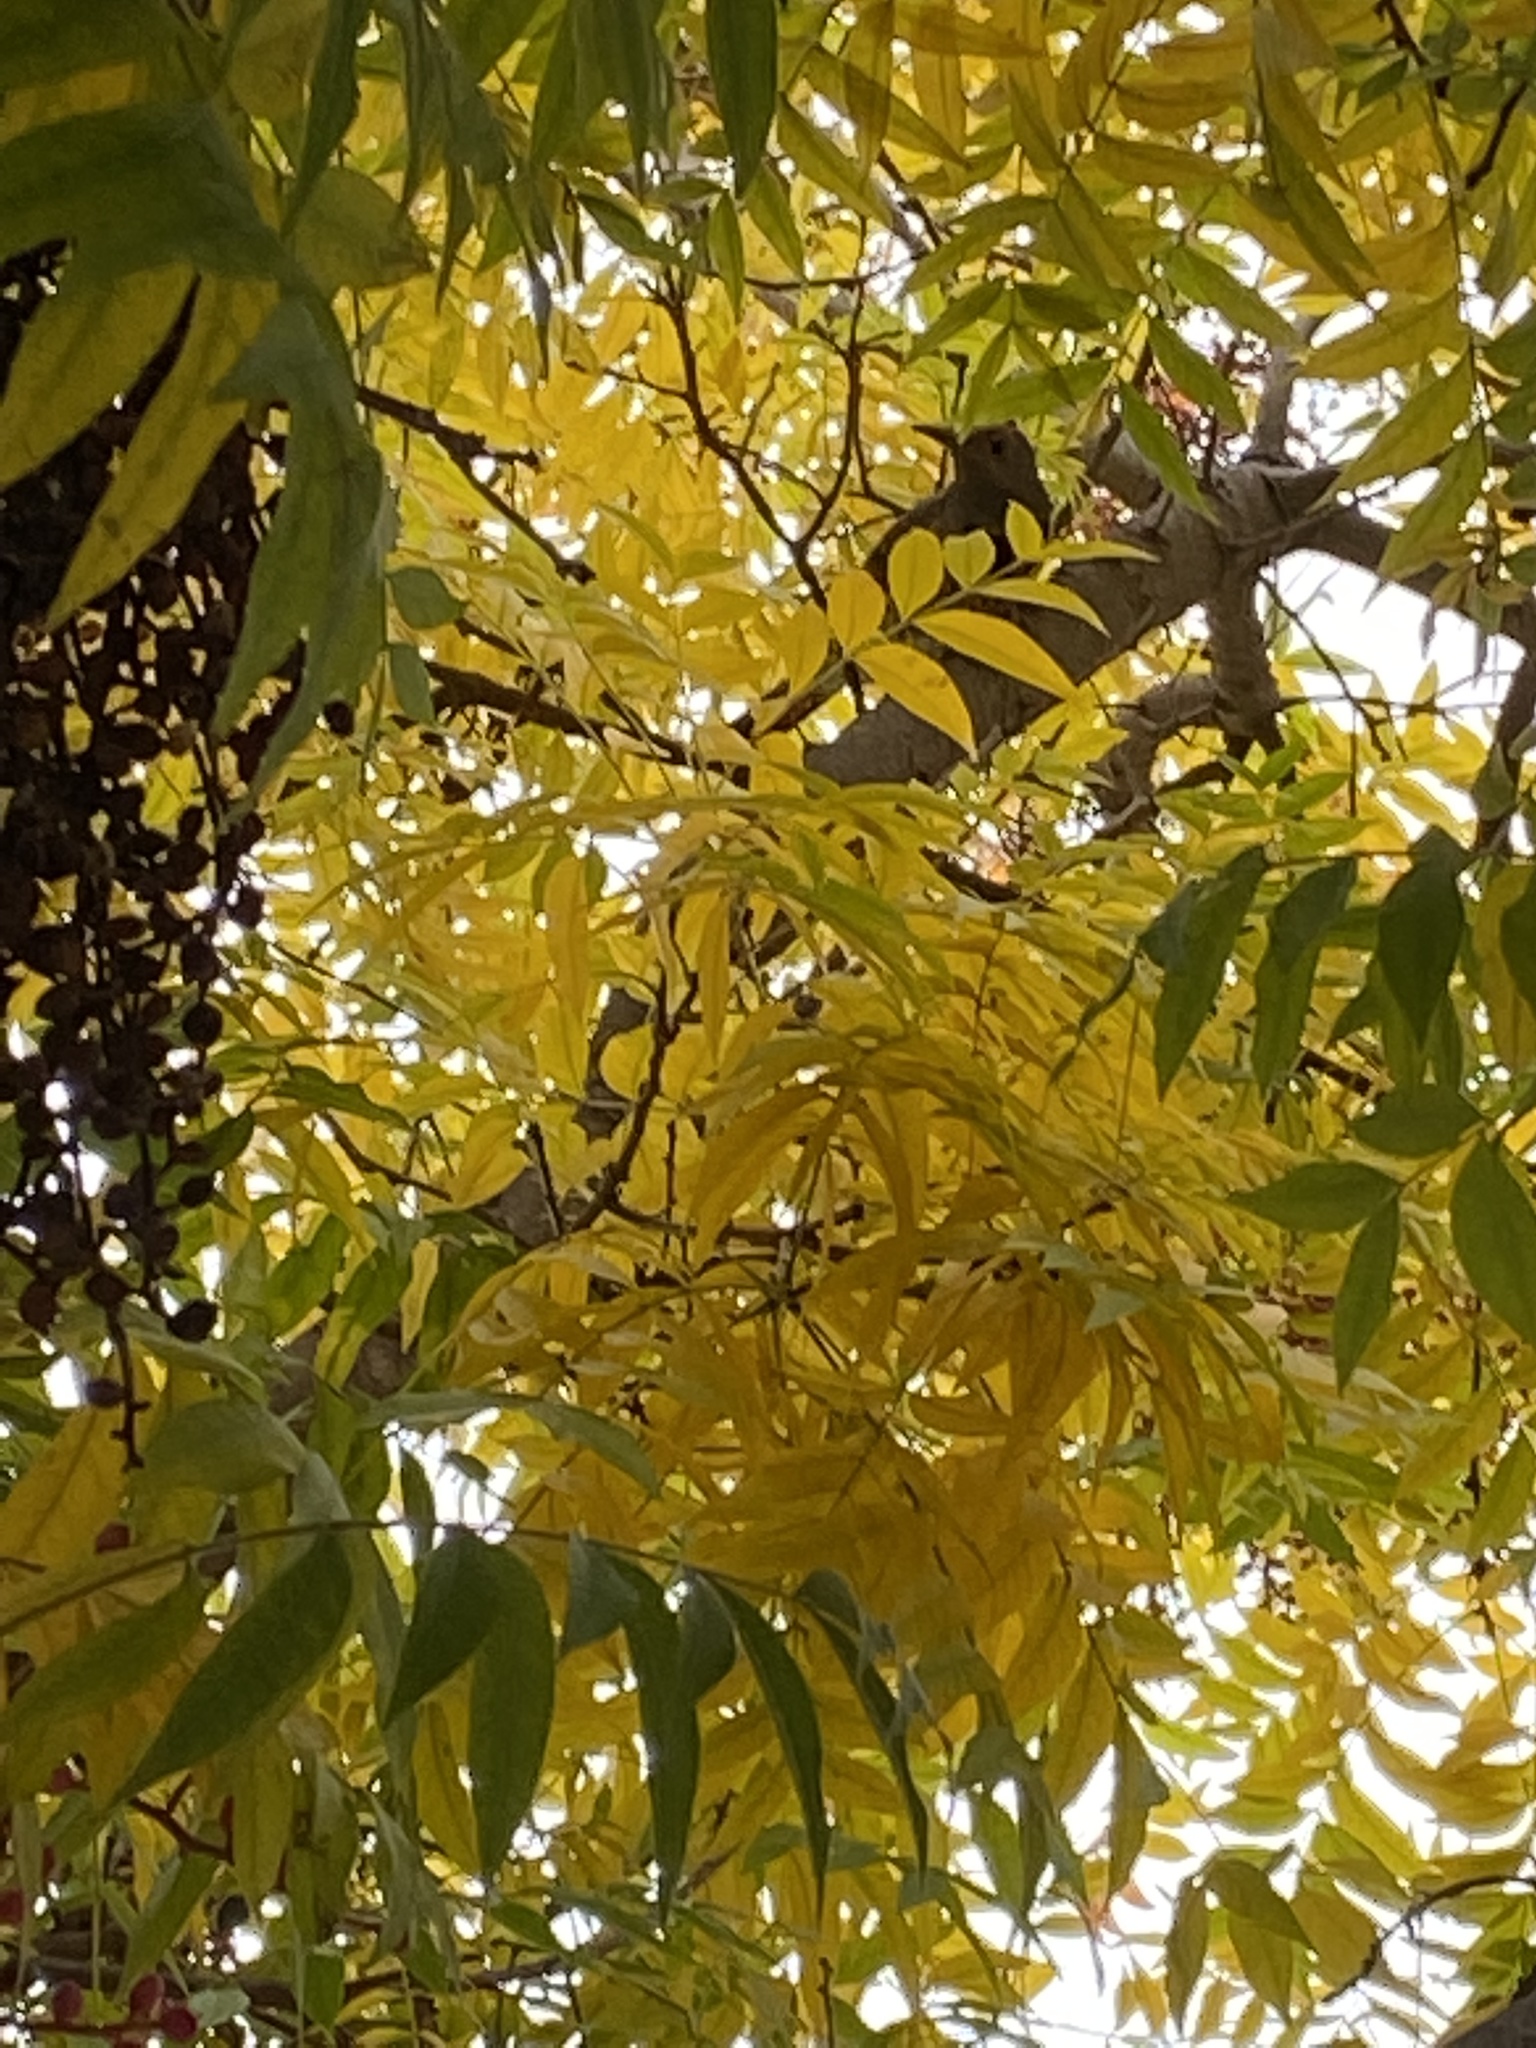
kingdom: Animalia
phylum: Chordata
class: Aves
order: Piciformes
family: Picidae
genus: Colaptes
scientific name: Colaptes auratus
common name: Northern flicker
